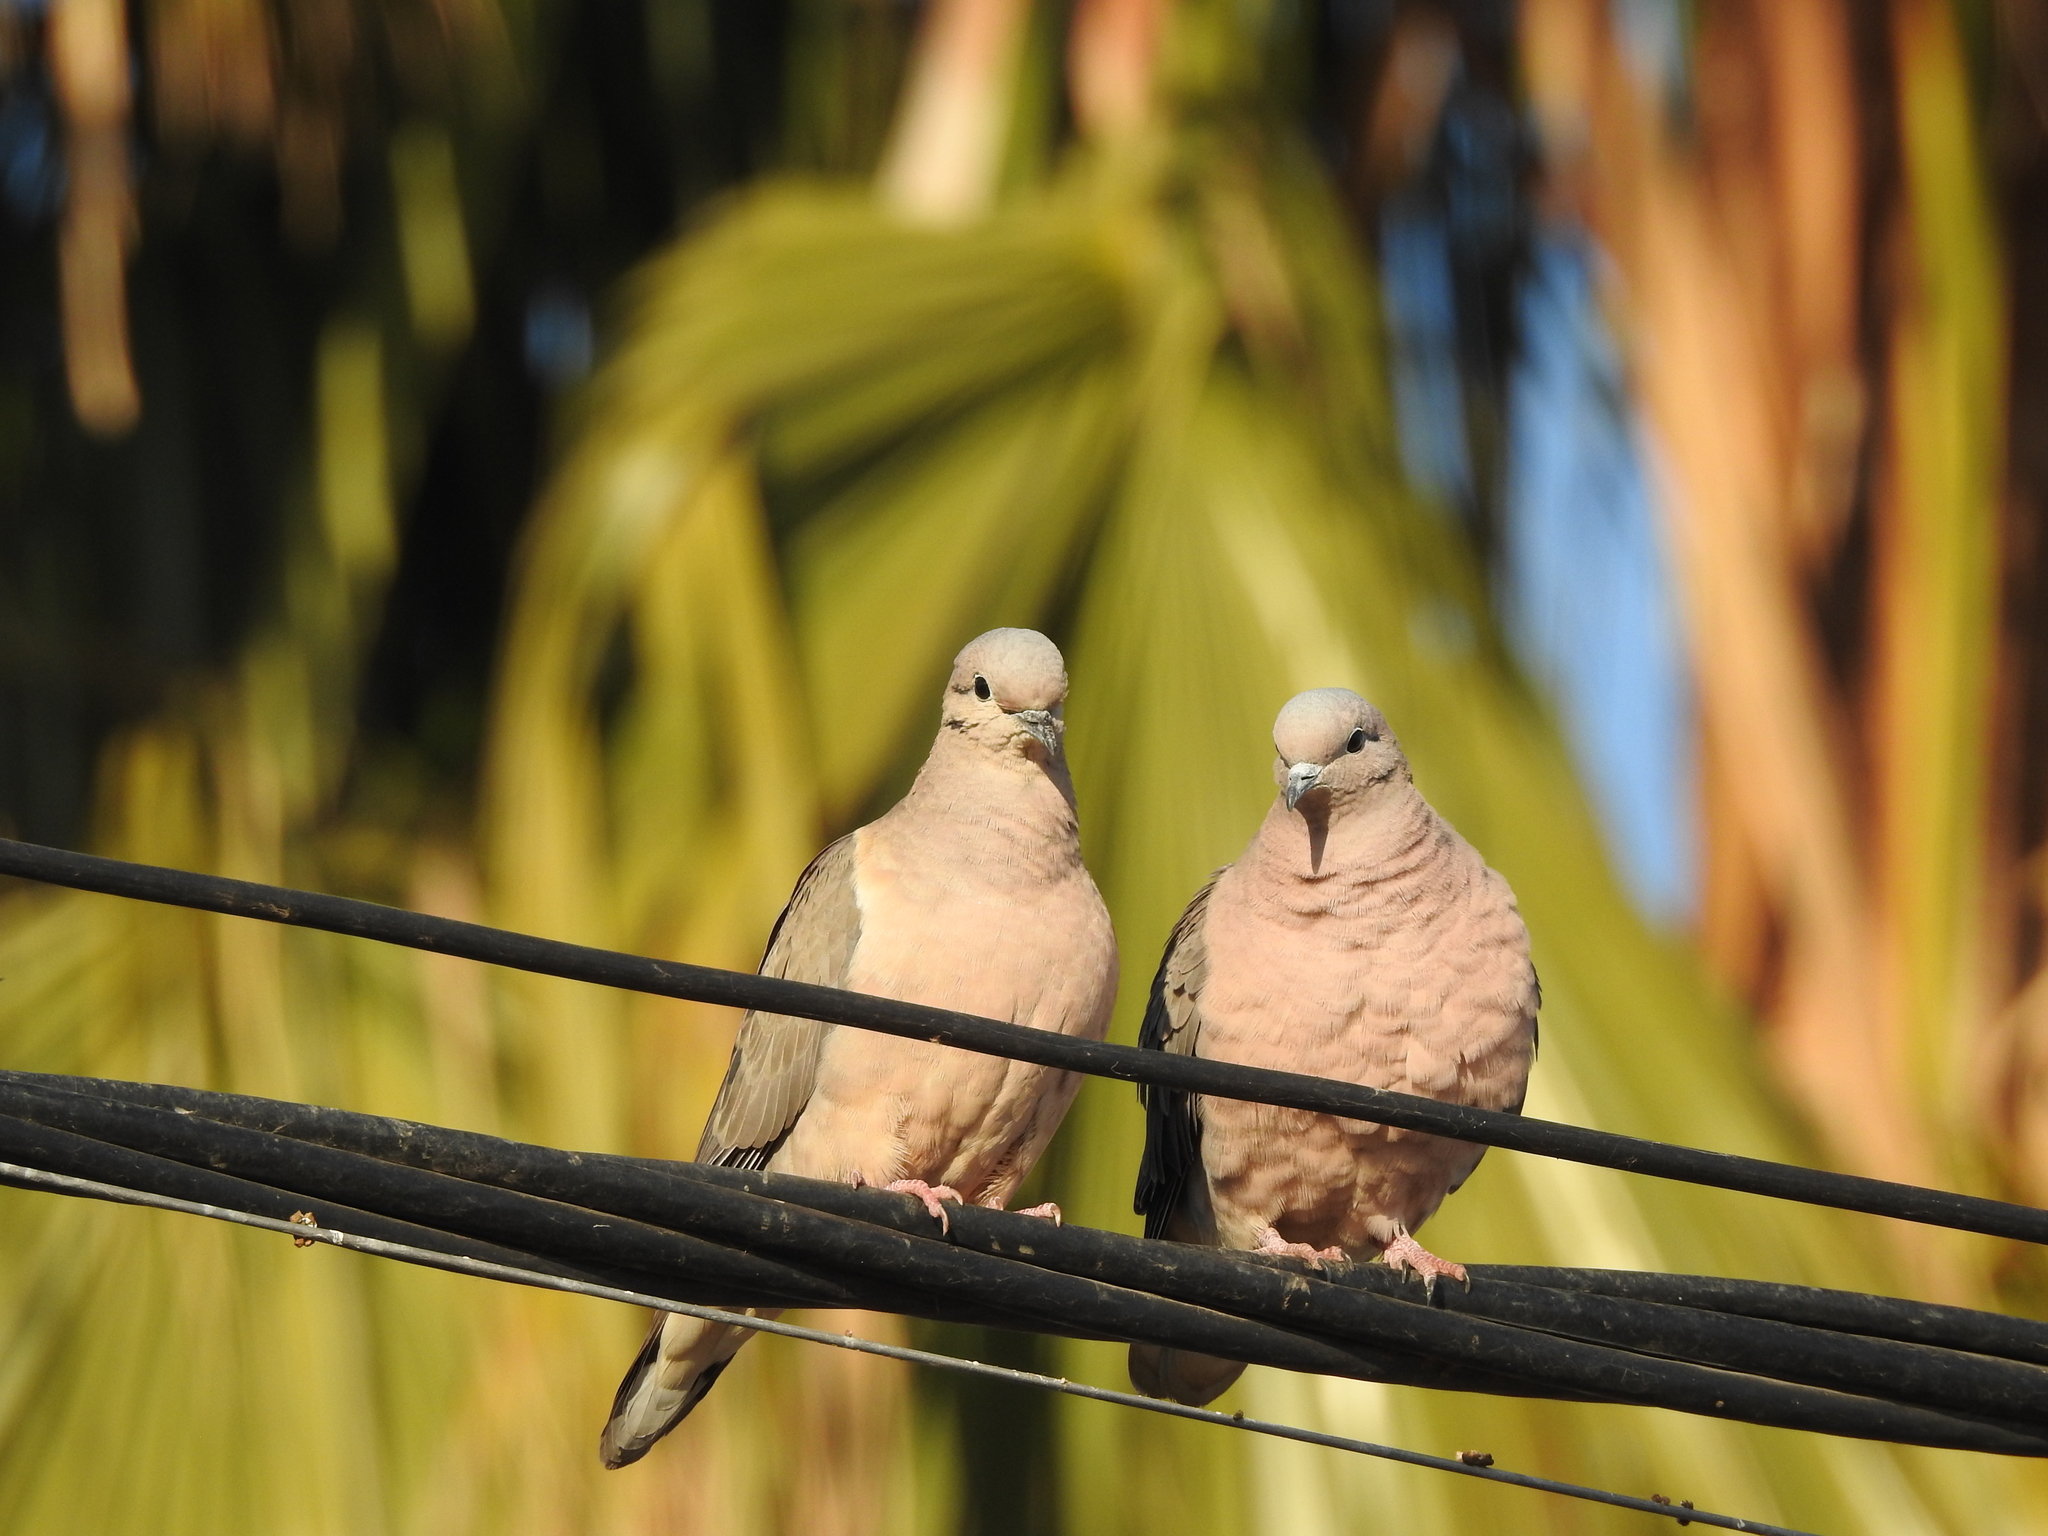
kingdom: Animalia
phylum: Chordata
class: Aves
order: Columbiformes
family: Columbidae
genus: Zenaida
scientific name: Zenaida auriculata
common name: Eared dove
